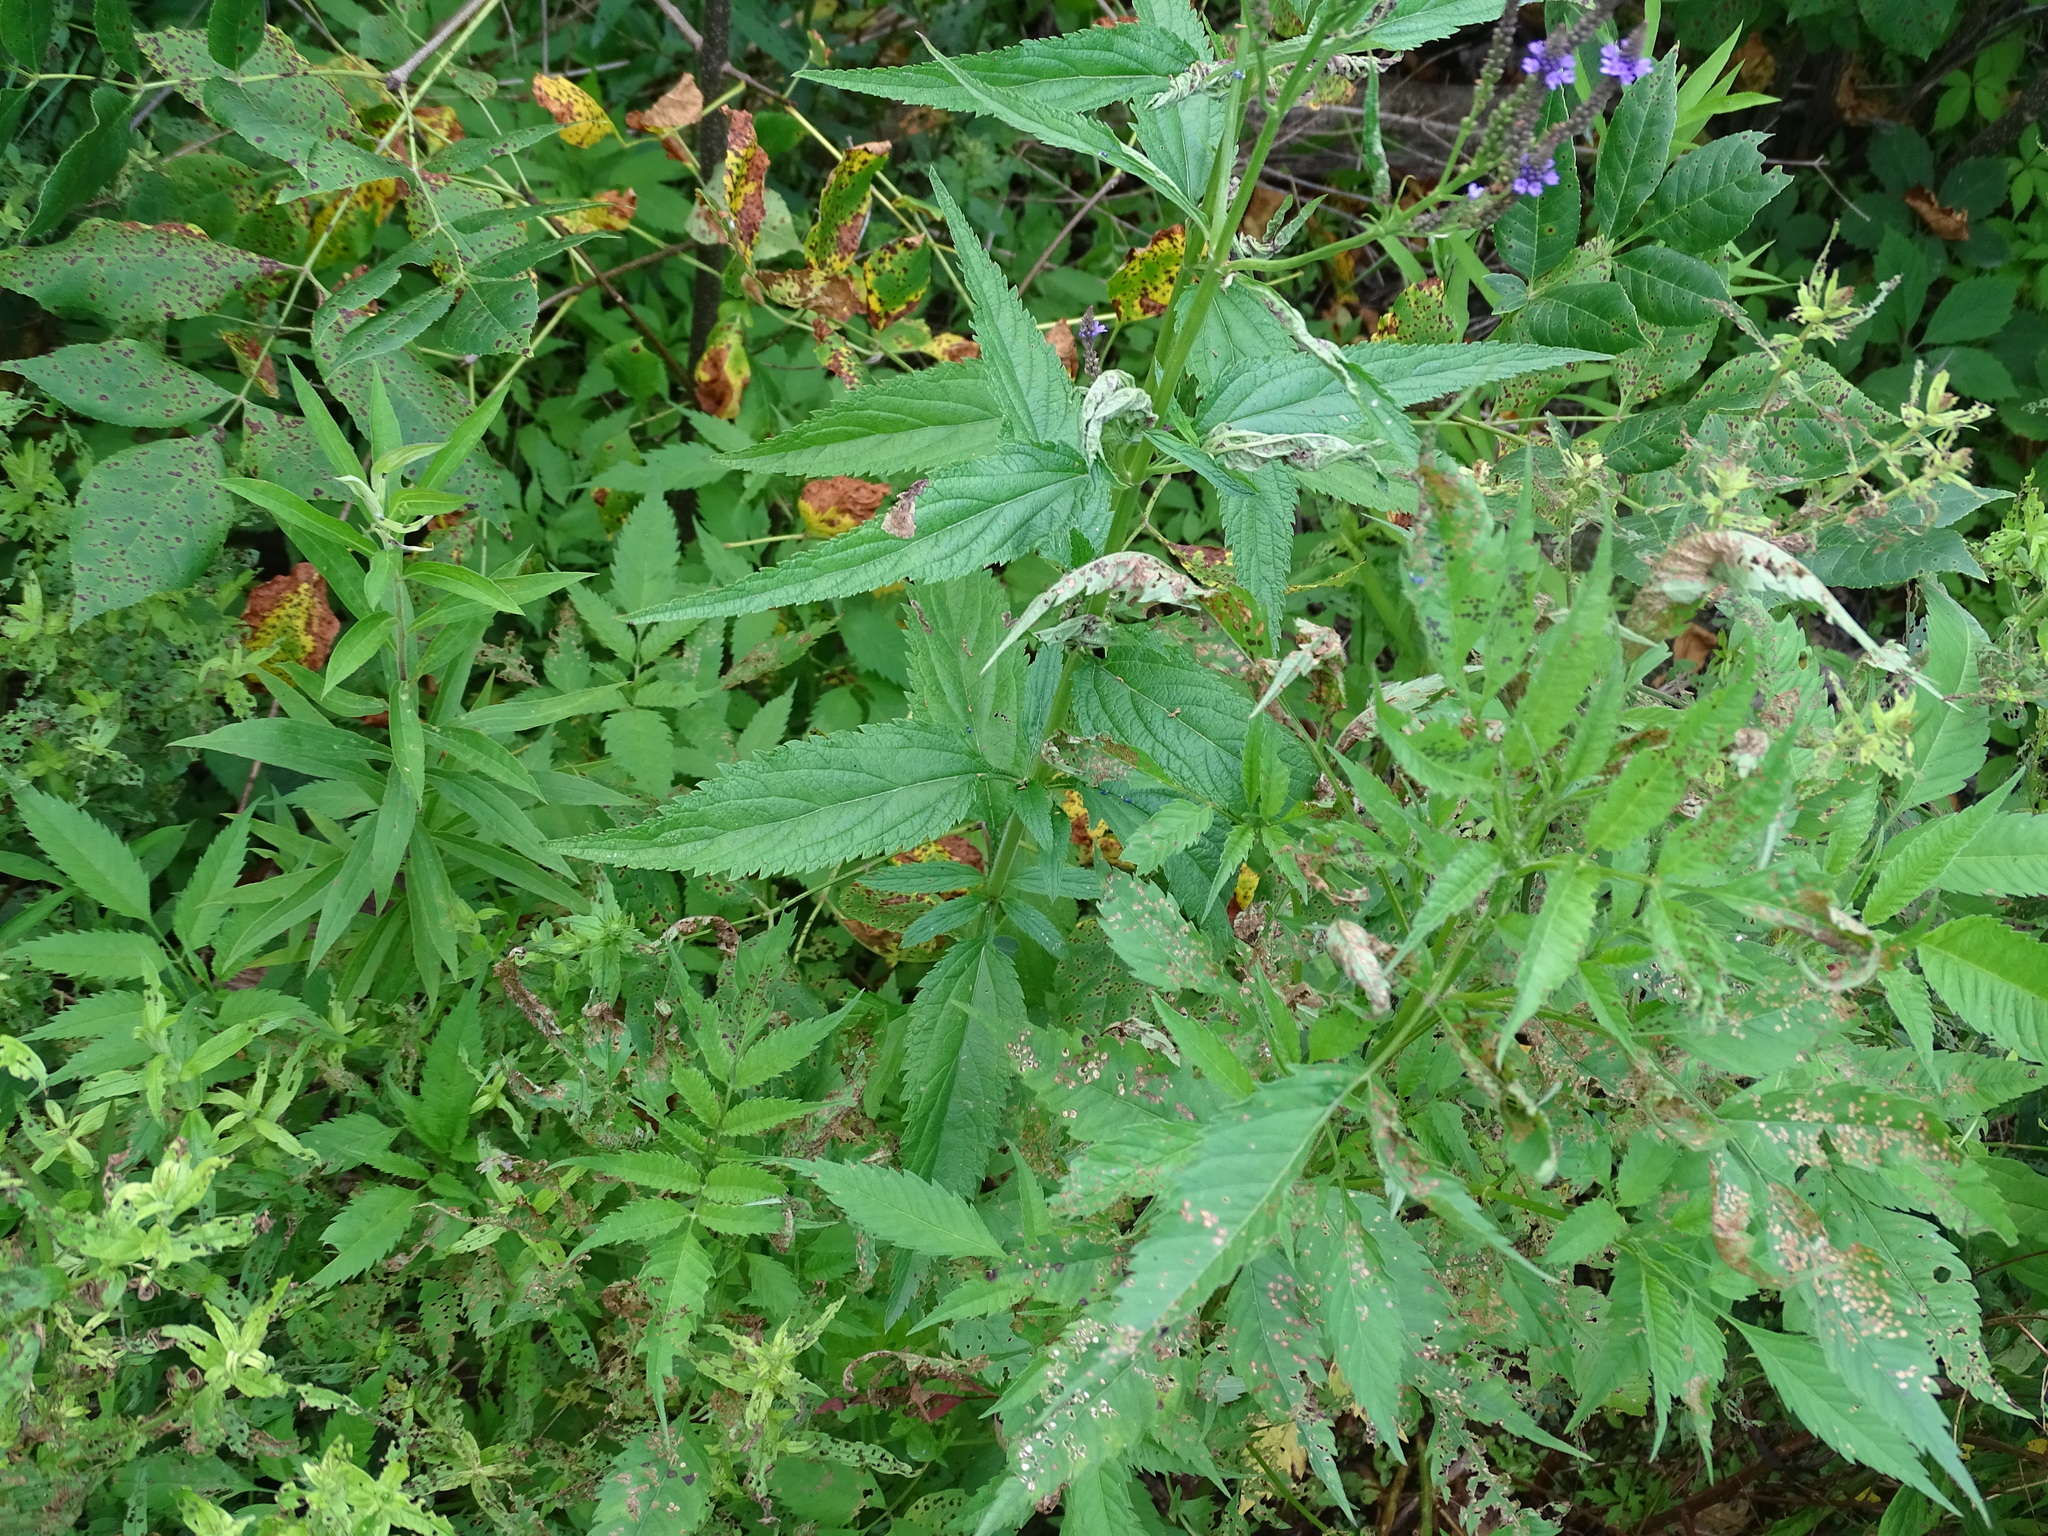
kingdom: Plantae
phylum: Tracheophyta
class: Magnoliopsida
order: Lamiales
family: Verbenaceae
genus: Verbena
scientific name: Verbena hastata
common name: American blue vervain
